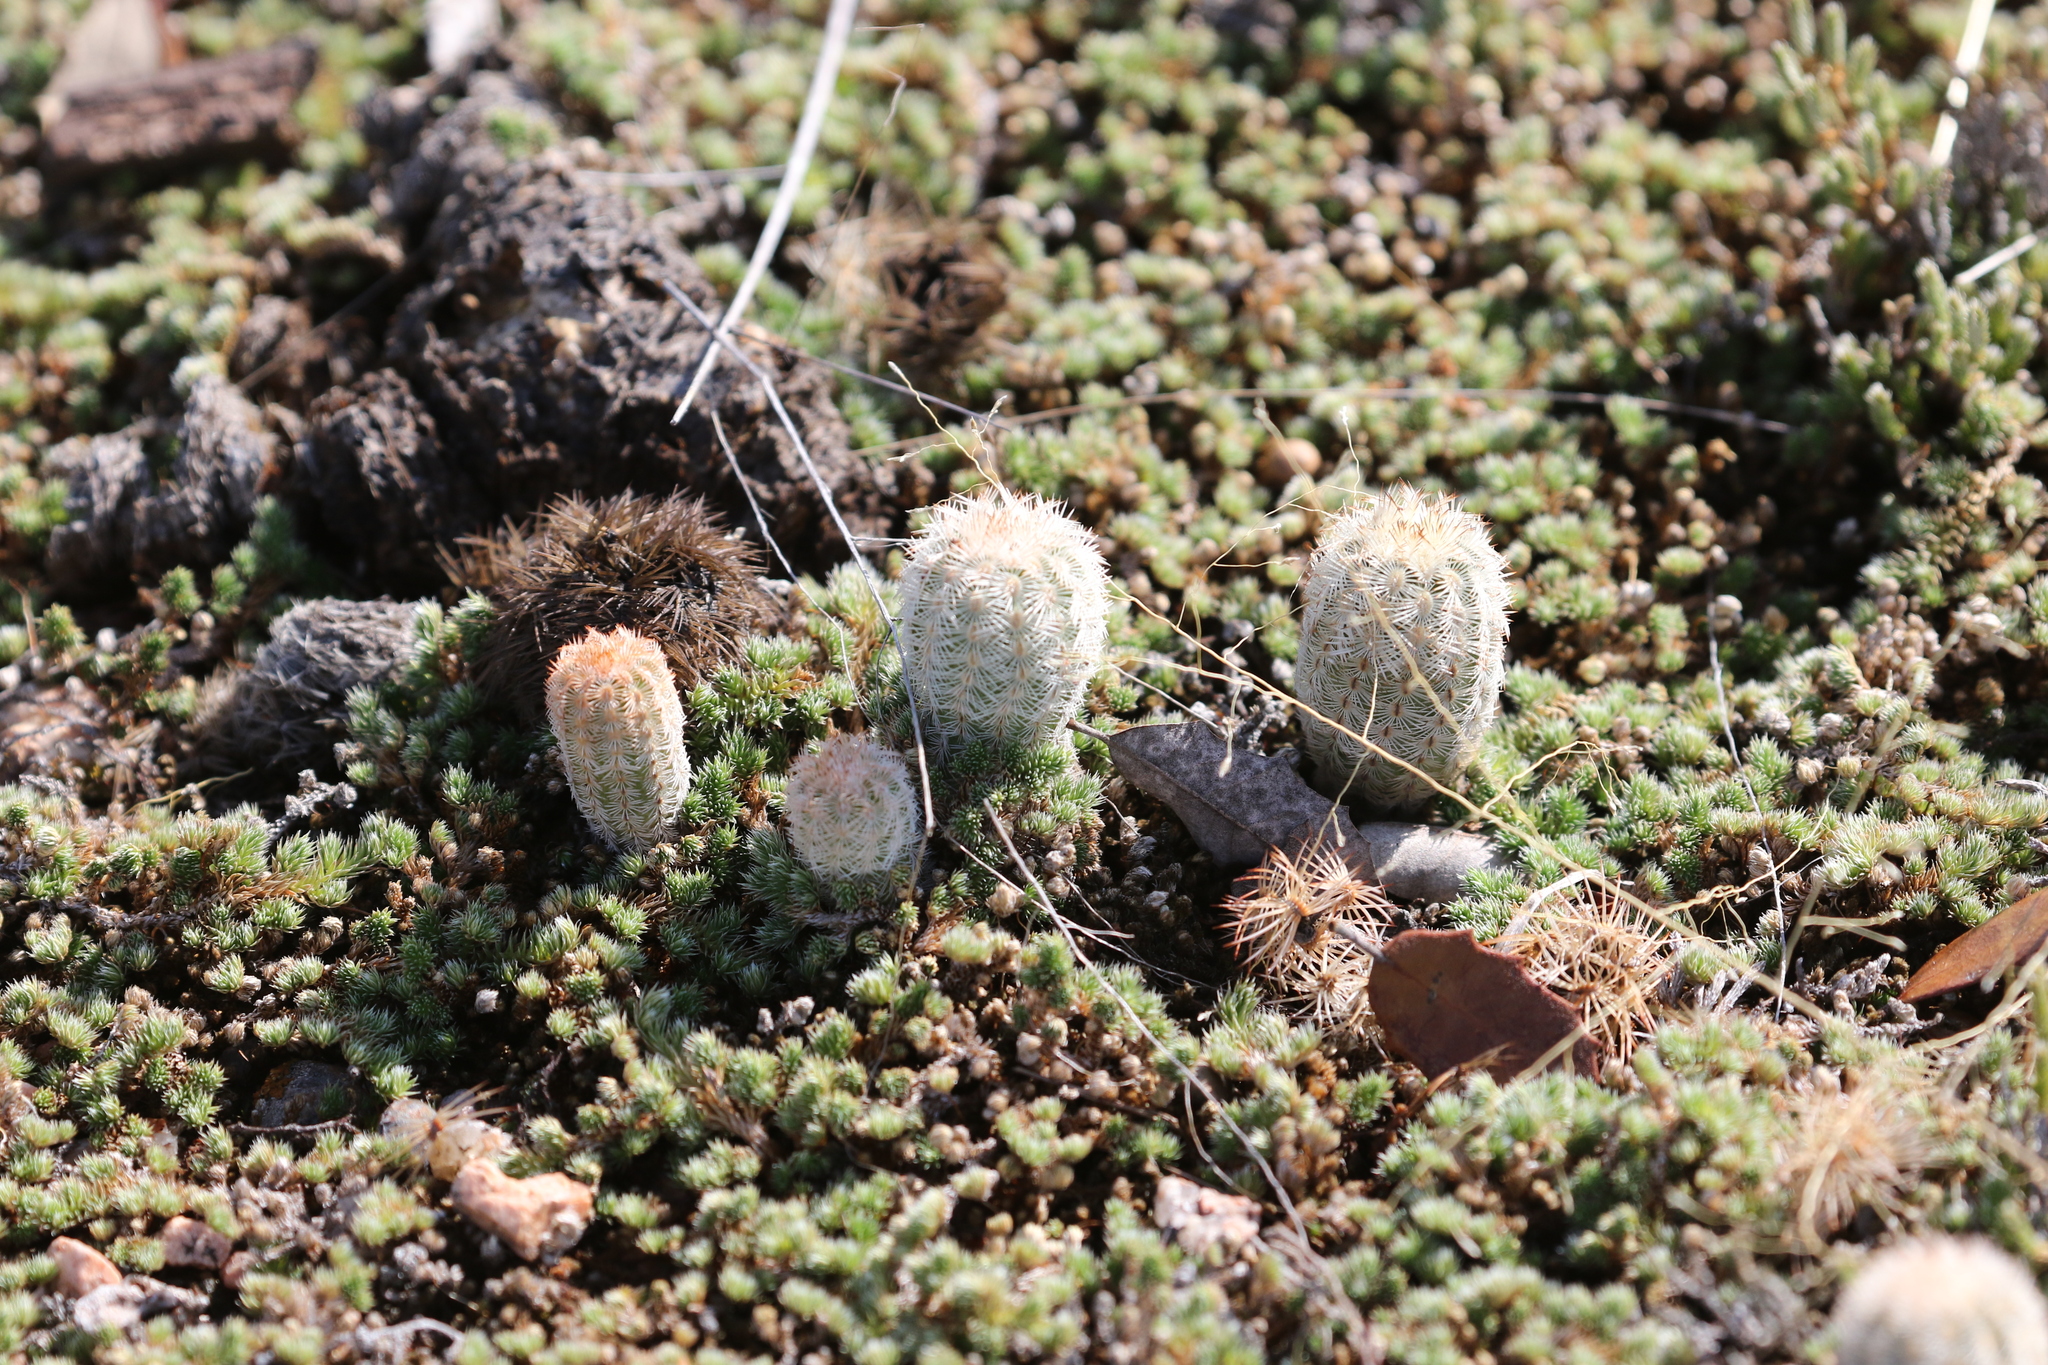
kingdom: Plantae
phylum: Tracheophyta
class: Magnoliopsida
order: Caryophyllales
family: Cactaceae
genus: Echinocereus
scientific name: Echinocereus reichenbachii
